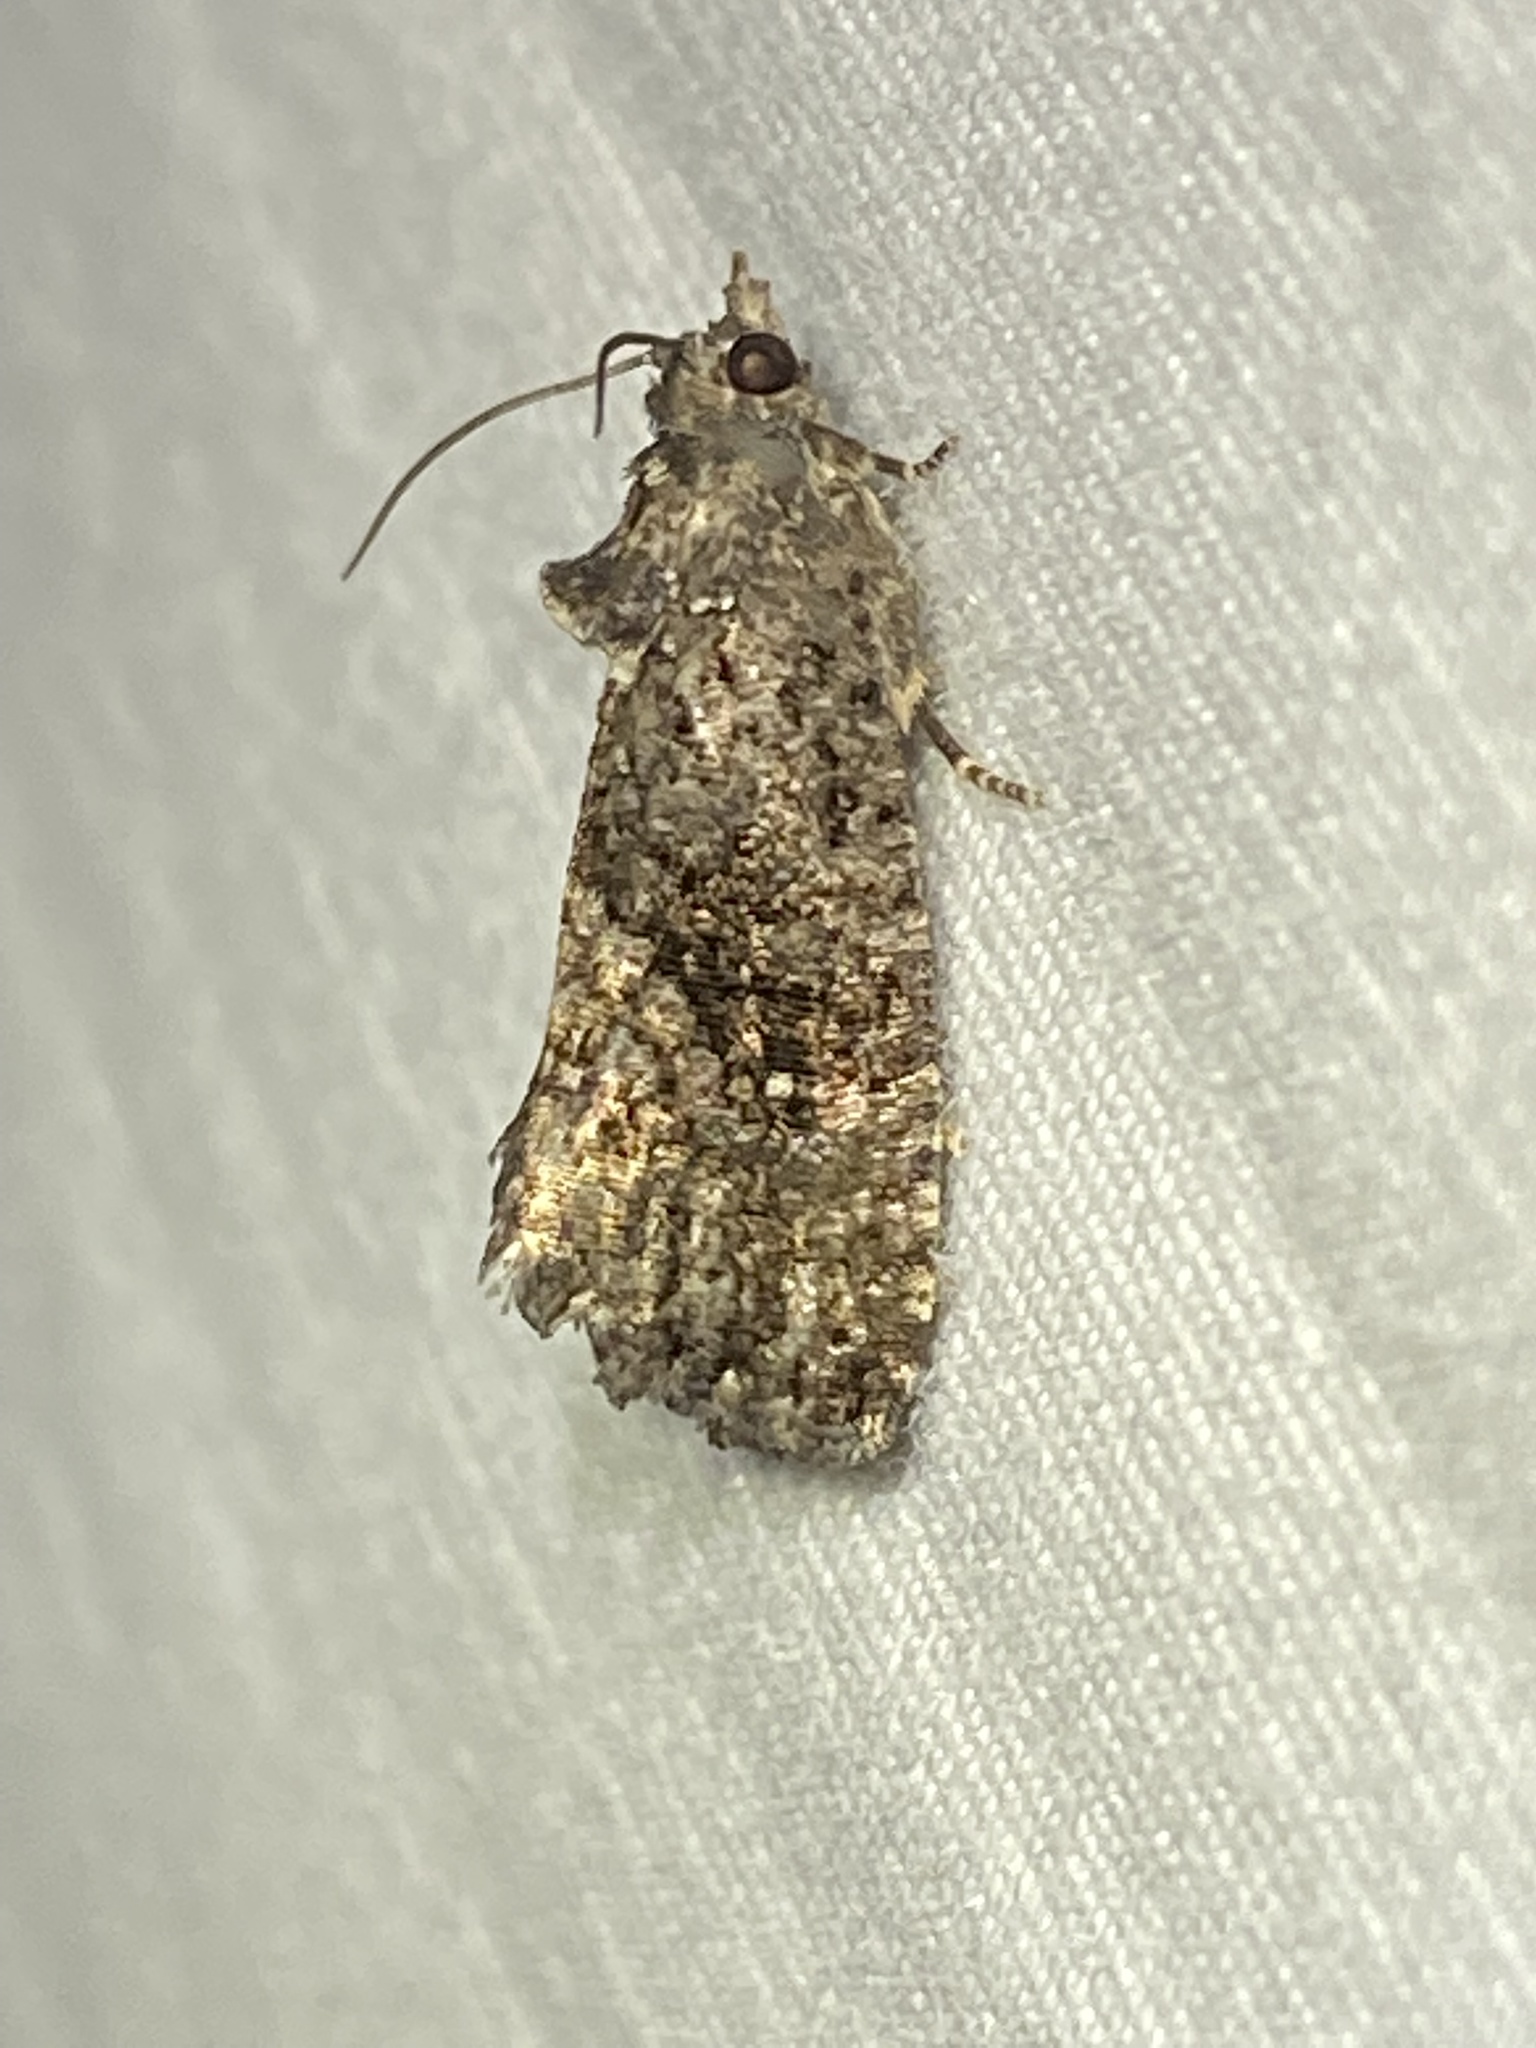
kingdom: Animalia
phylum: Arthropoda
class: Insecta
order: Lepidoptera
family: Tortricidae
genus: Gymnandrosoma
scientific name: Gymnandrosoma punctidiscanum
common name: Dotted ecdytolopha moth
